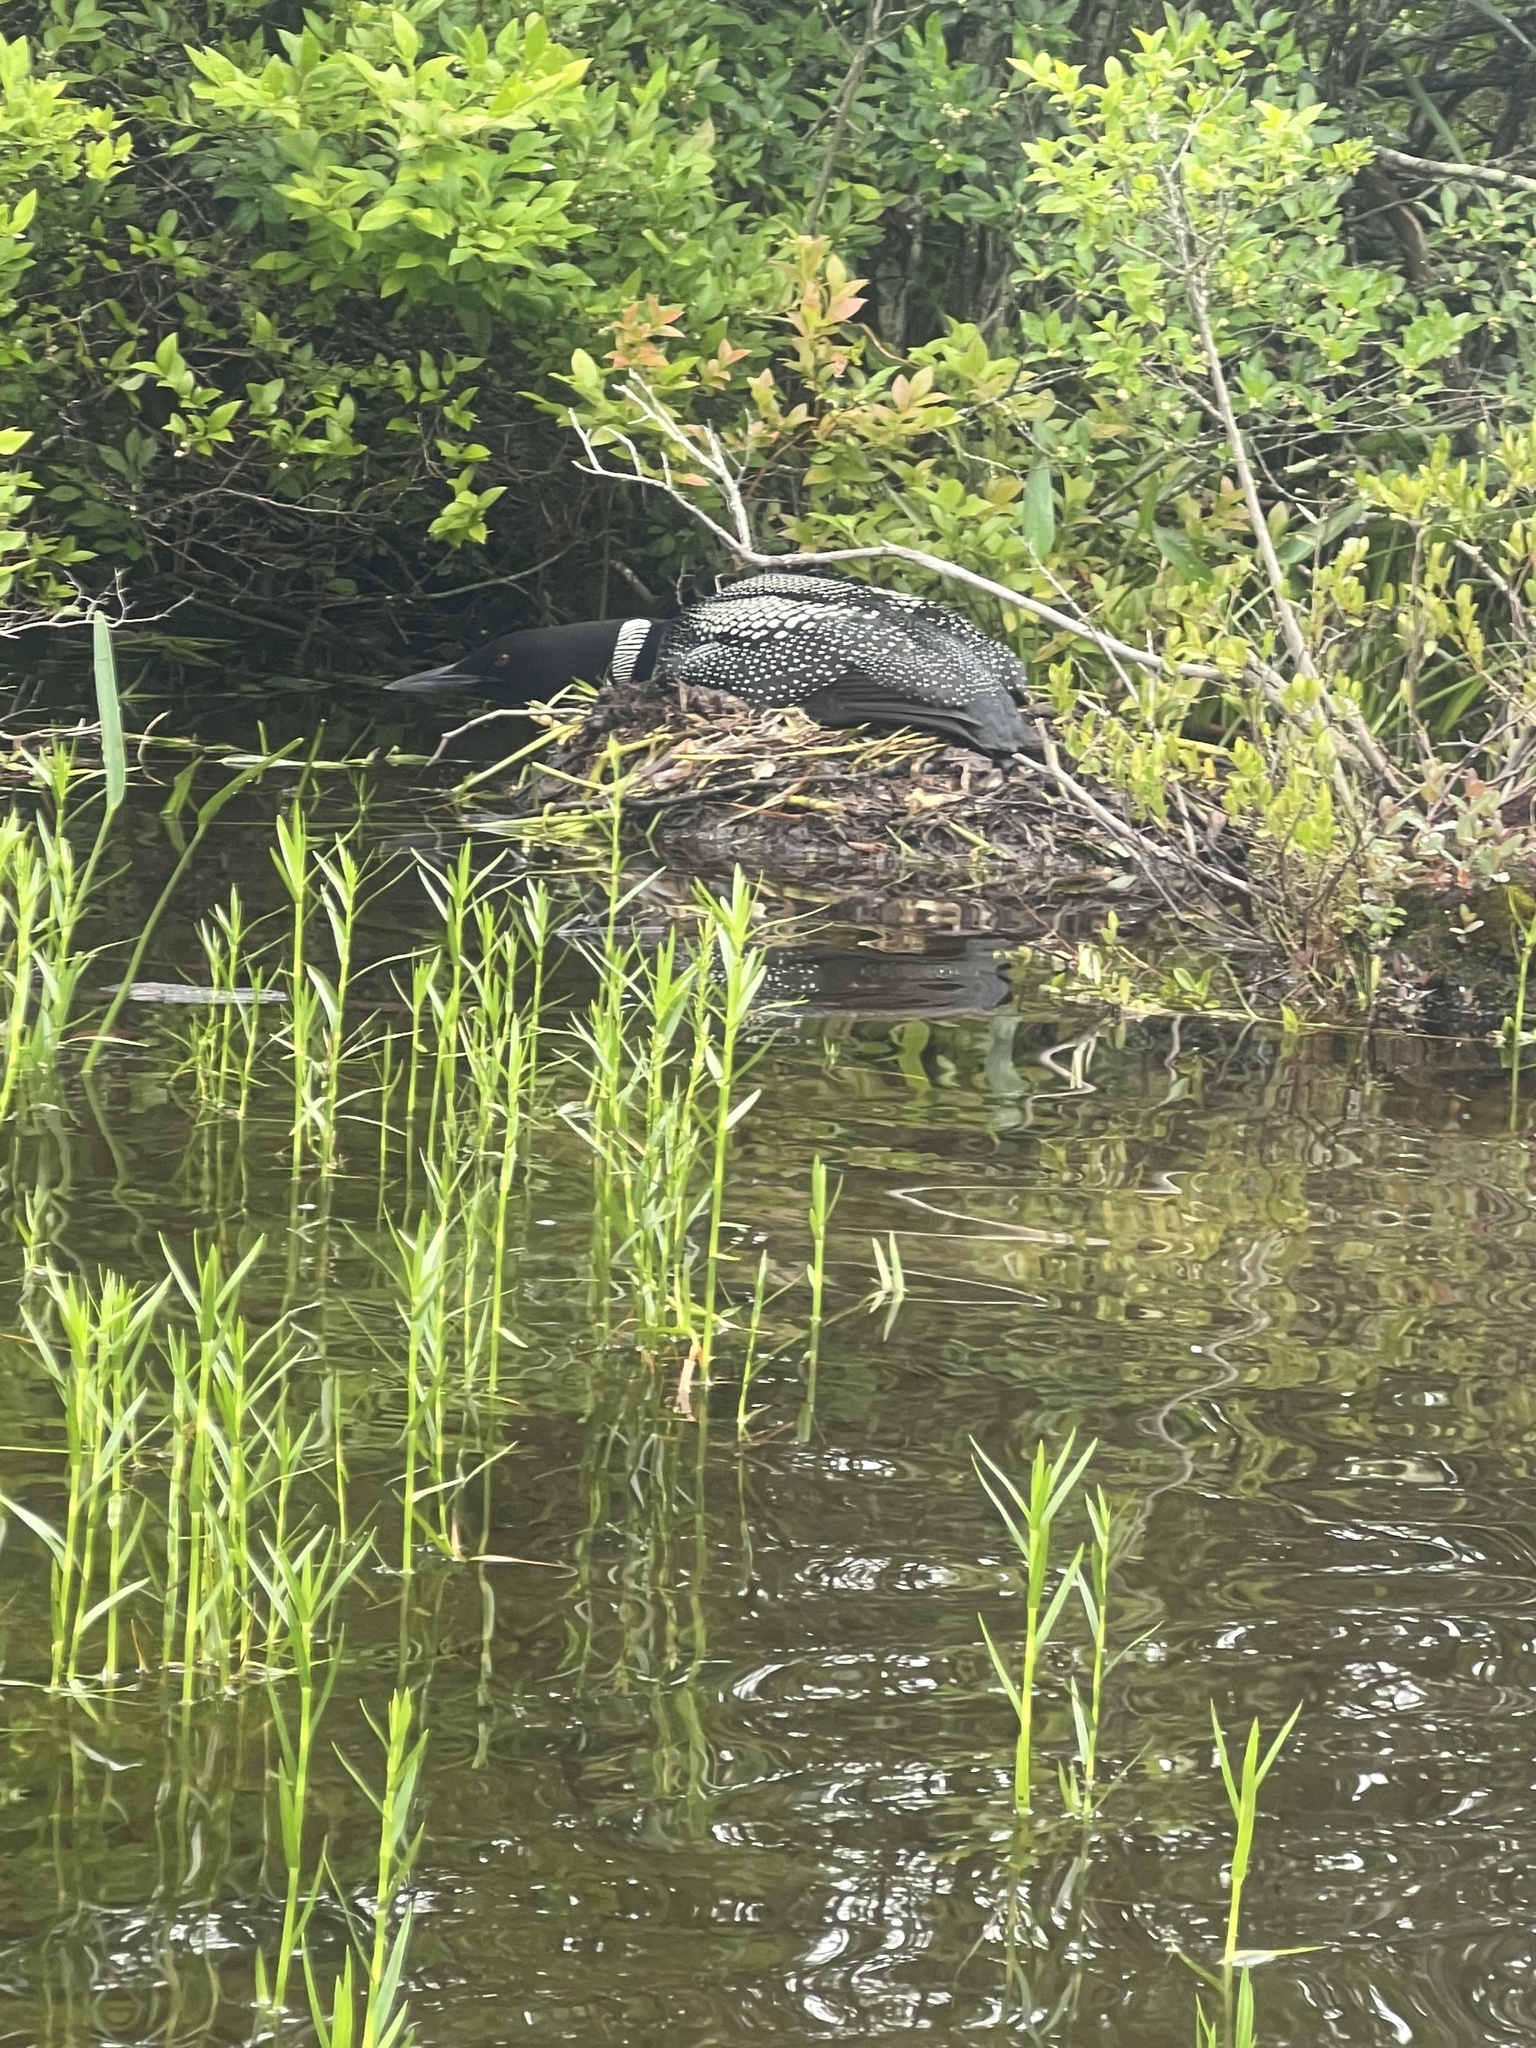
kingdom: Animalia
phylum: Chordata
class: Aves
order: Gaviiformes
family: Gaviidae
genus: Gavia
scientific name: Gavia immer
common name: Common loon
